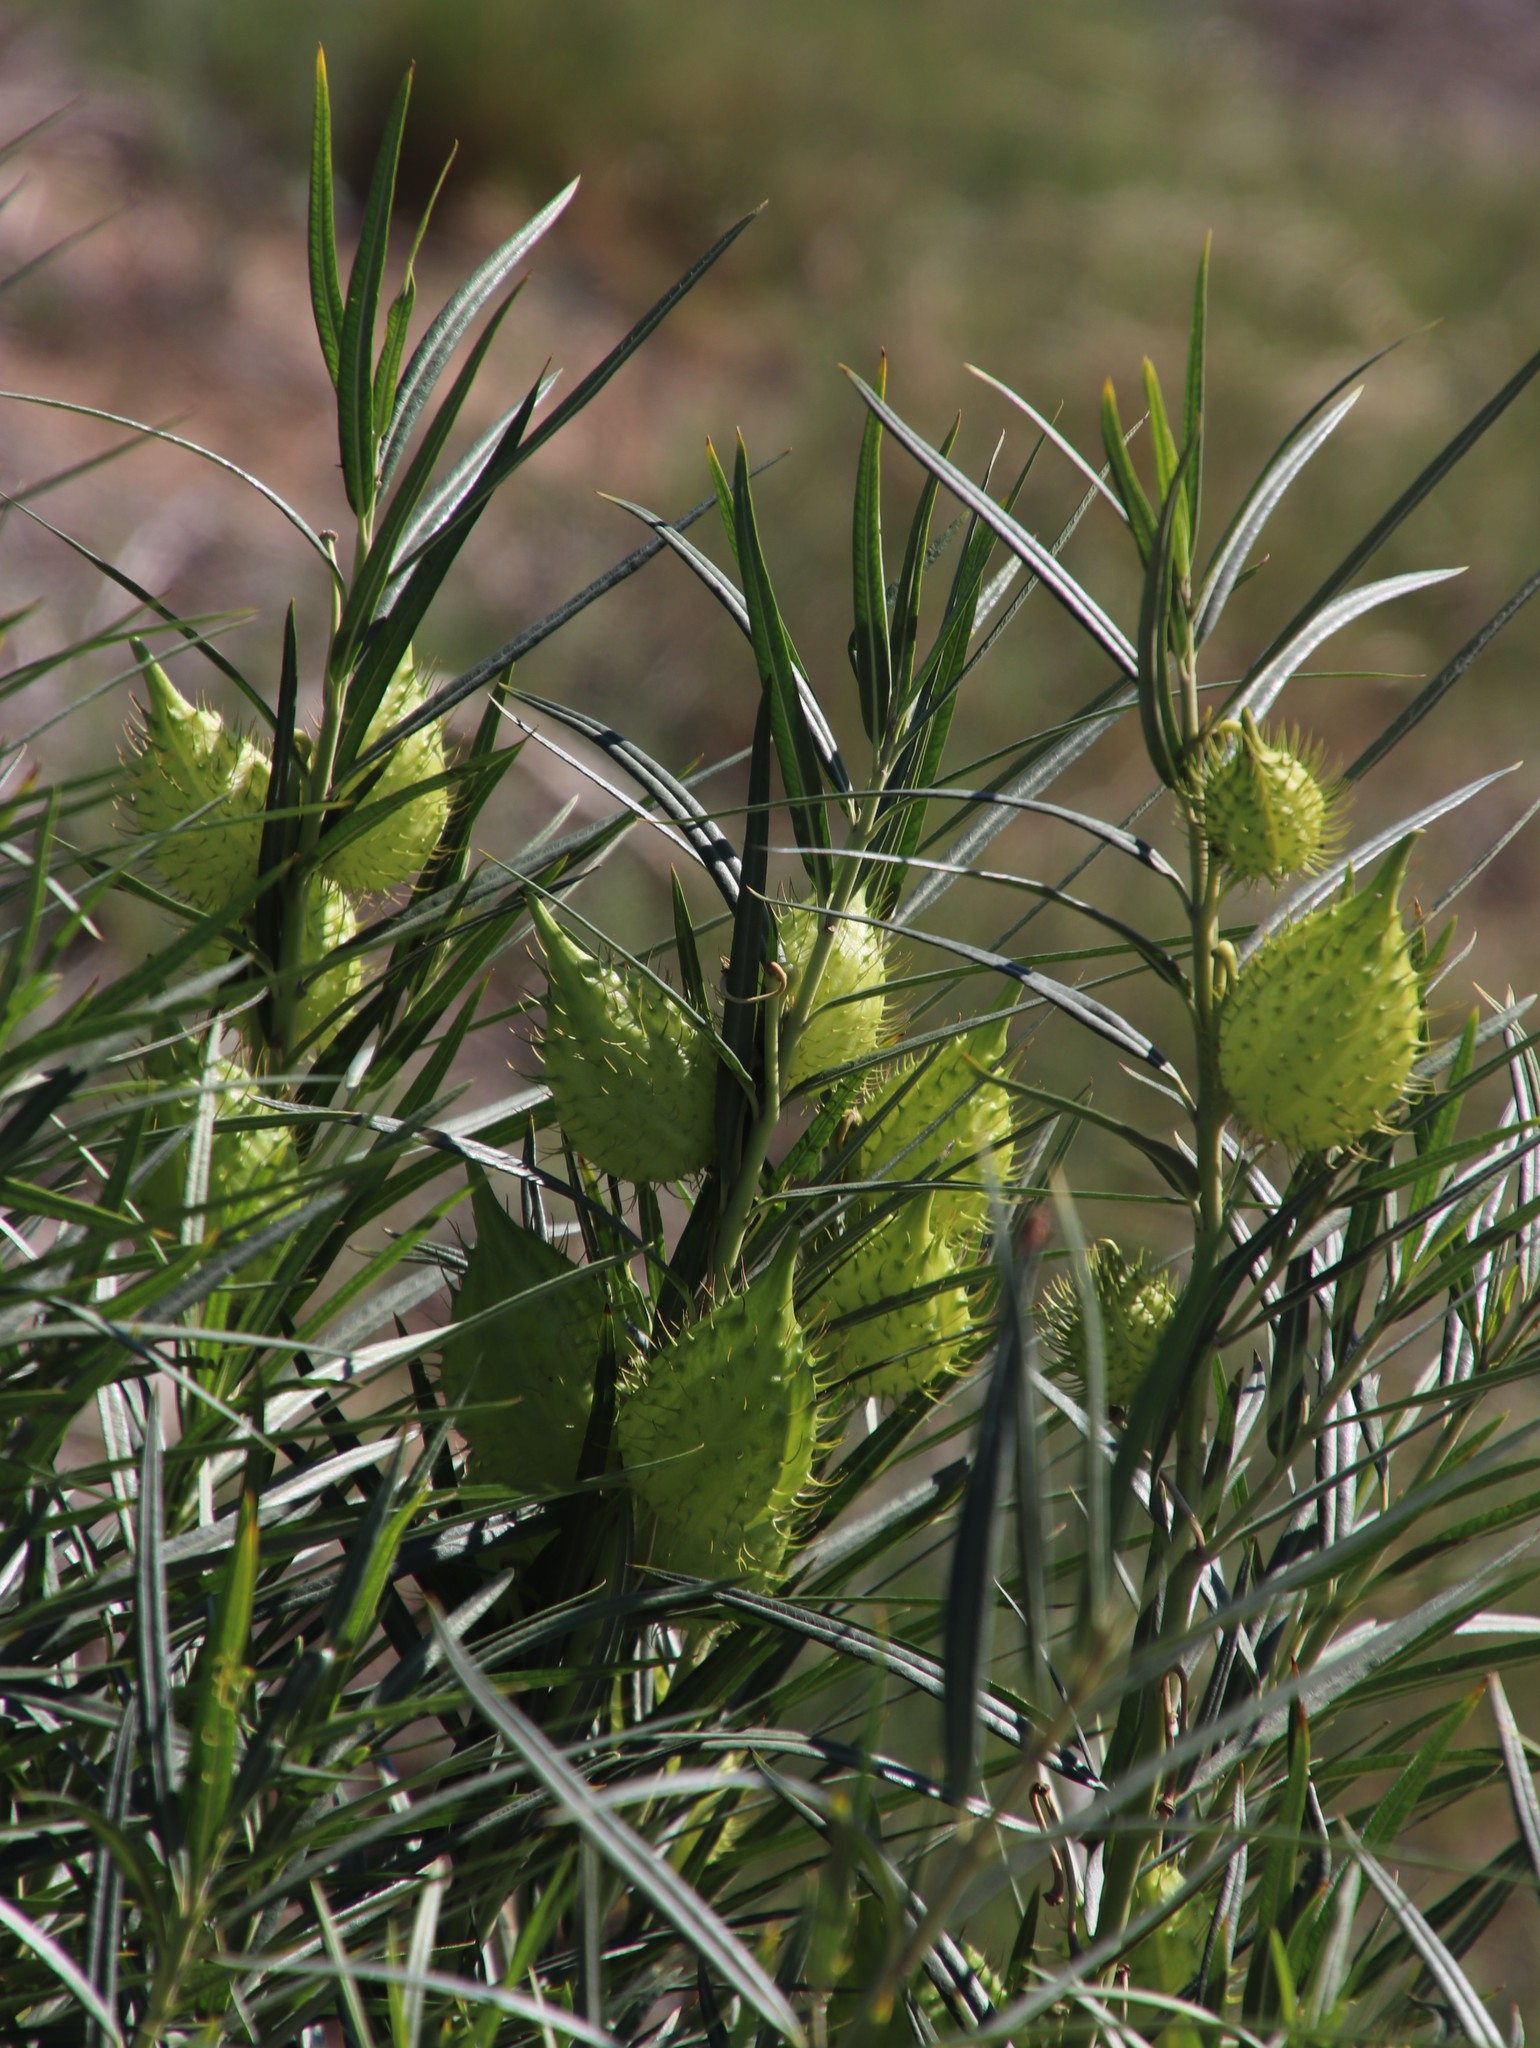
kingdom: Plantae
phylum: Tracheophyta
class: Magnoliopsida
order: Gentianales
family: Apocynaceae
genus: Gomphocarpus
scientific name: Gomphocarpus fruticosus
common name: Milkweed
